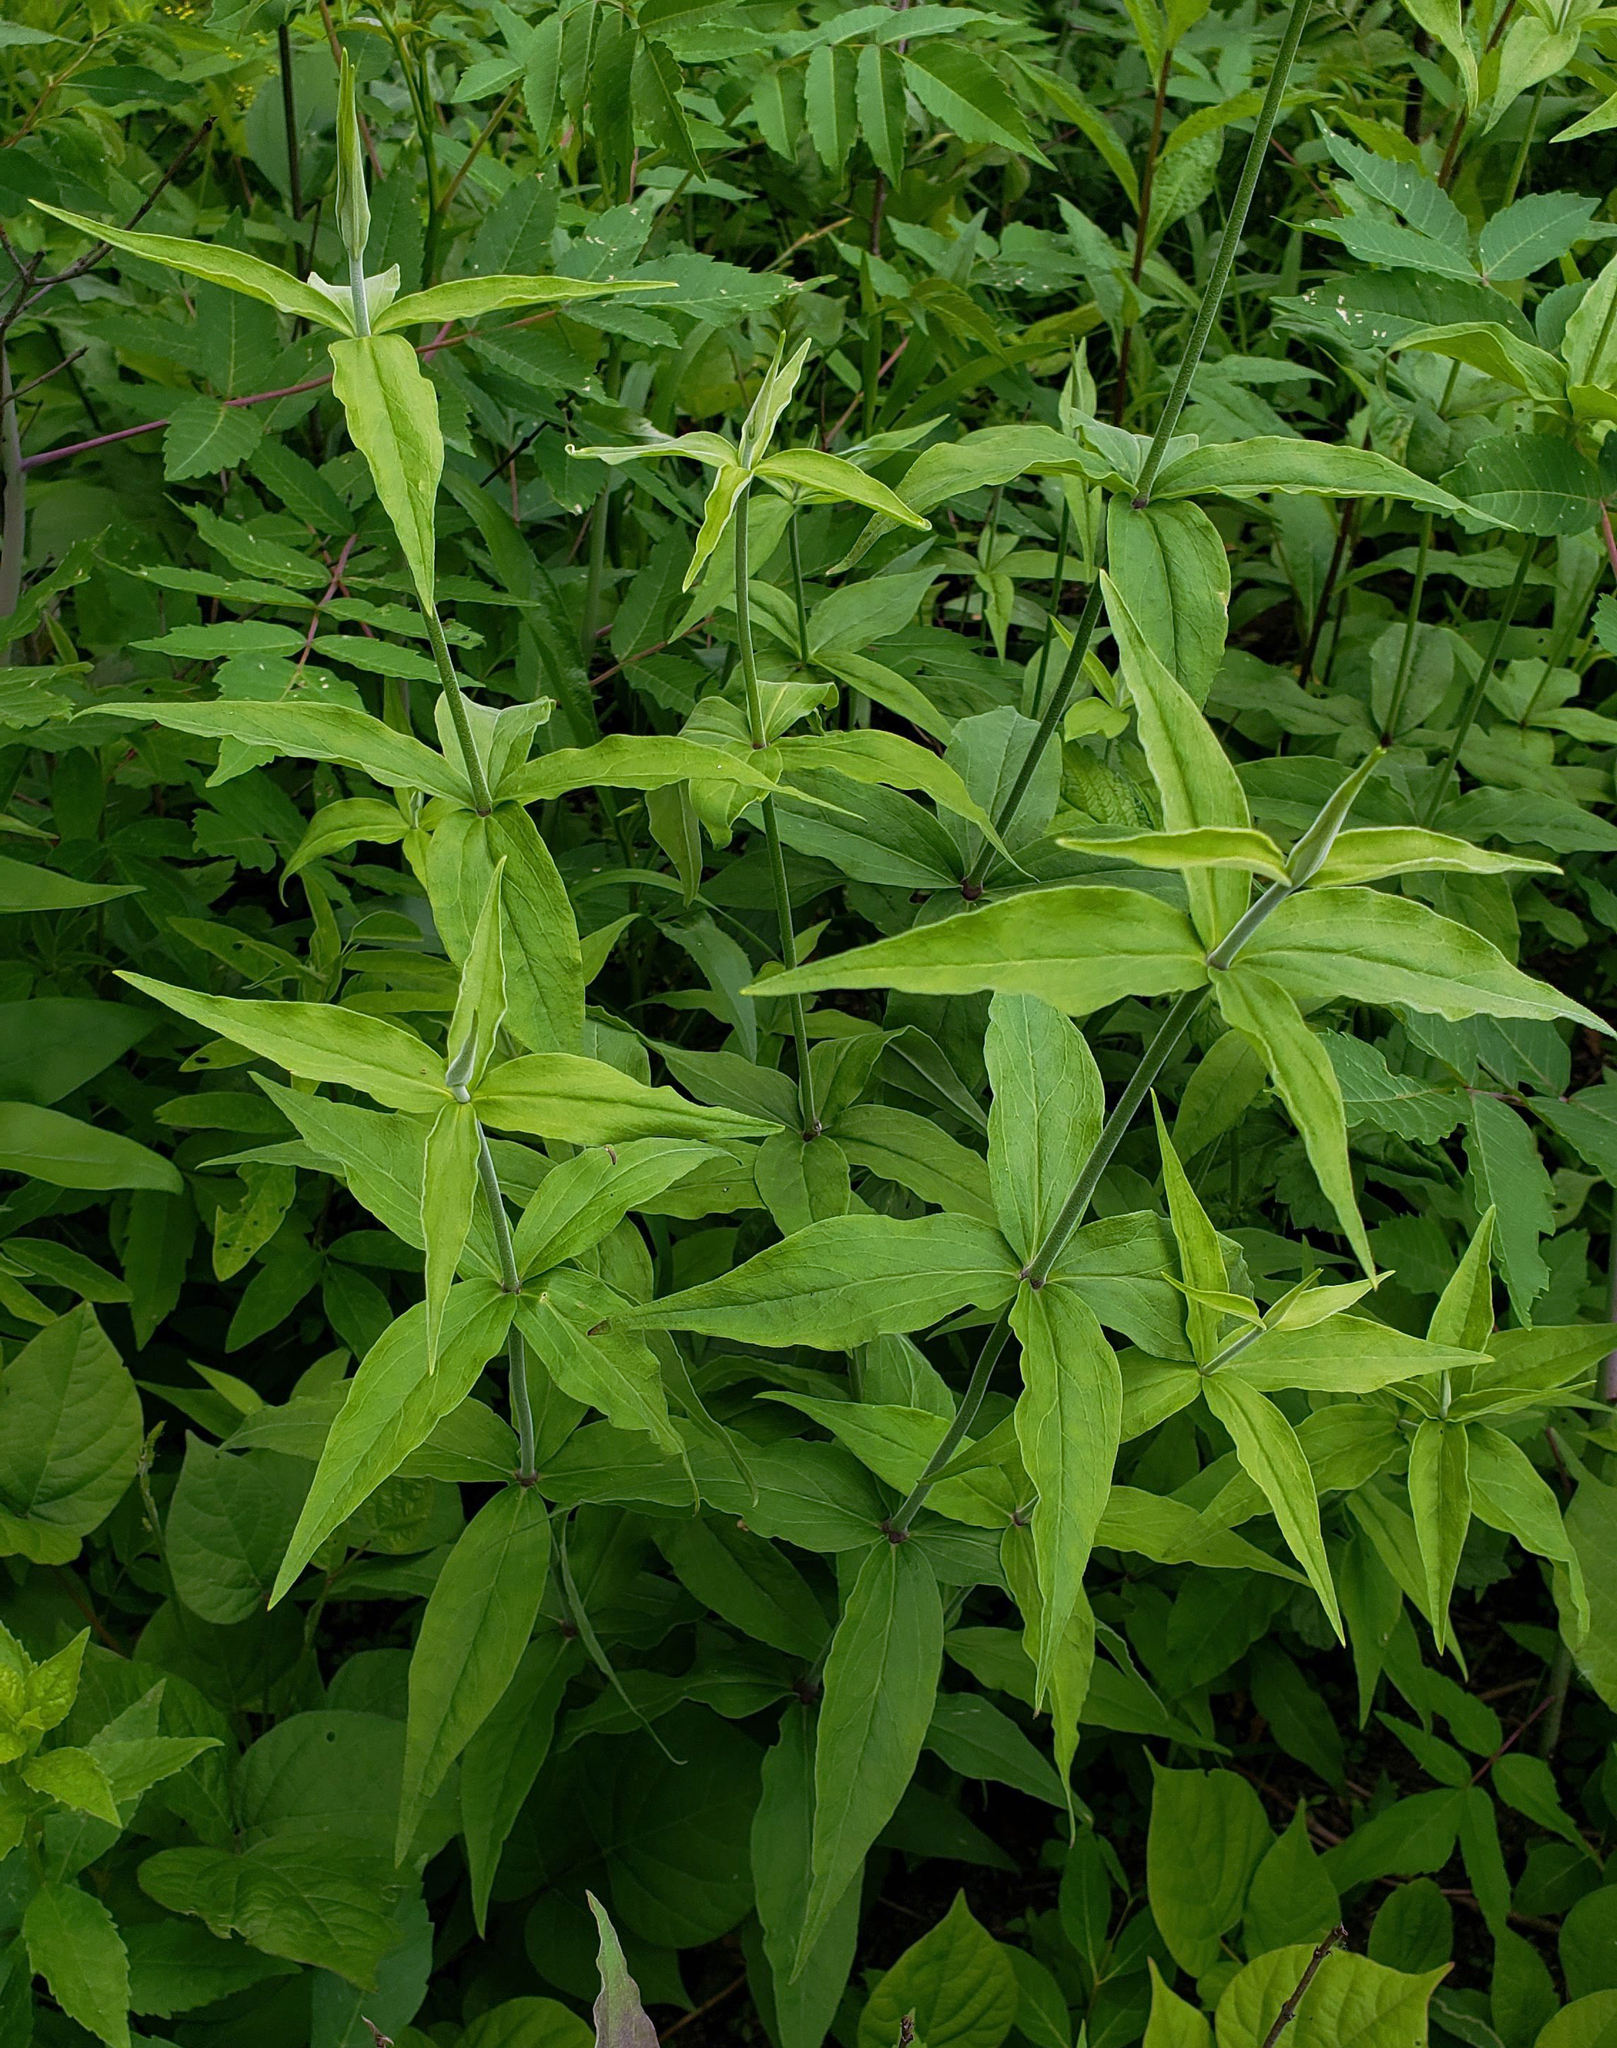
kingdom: Plantae
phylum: Tracheophyta
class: Magnoliopsida
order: Caryophyllales
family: Caryophyllaceae
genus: Silene
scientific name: Silene stellata
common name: Starry campion
